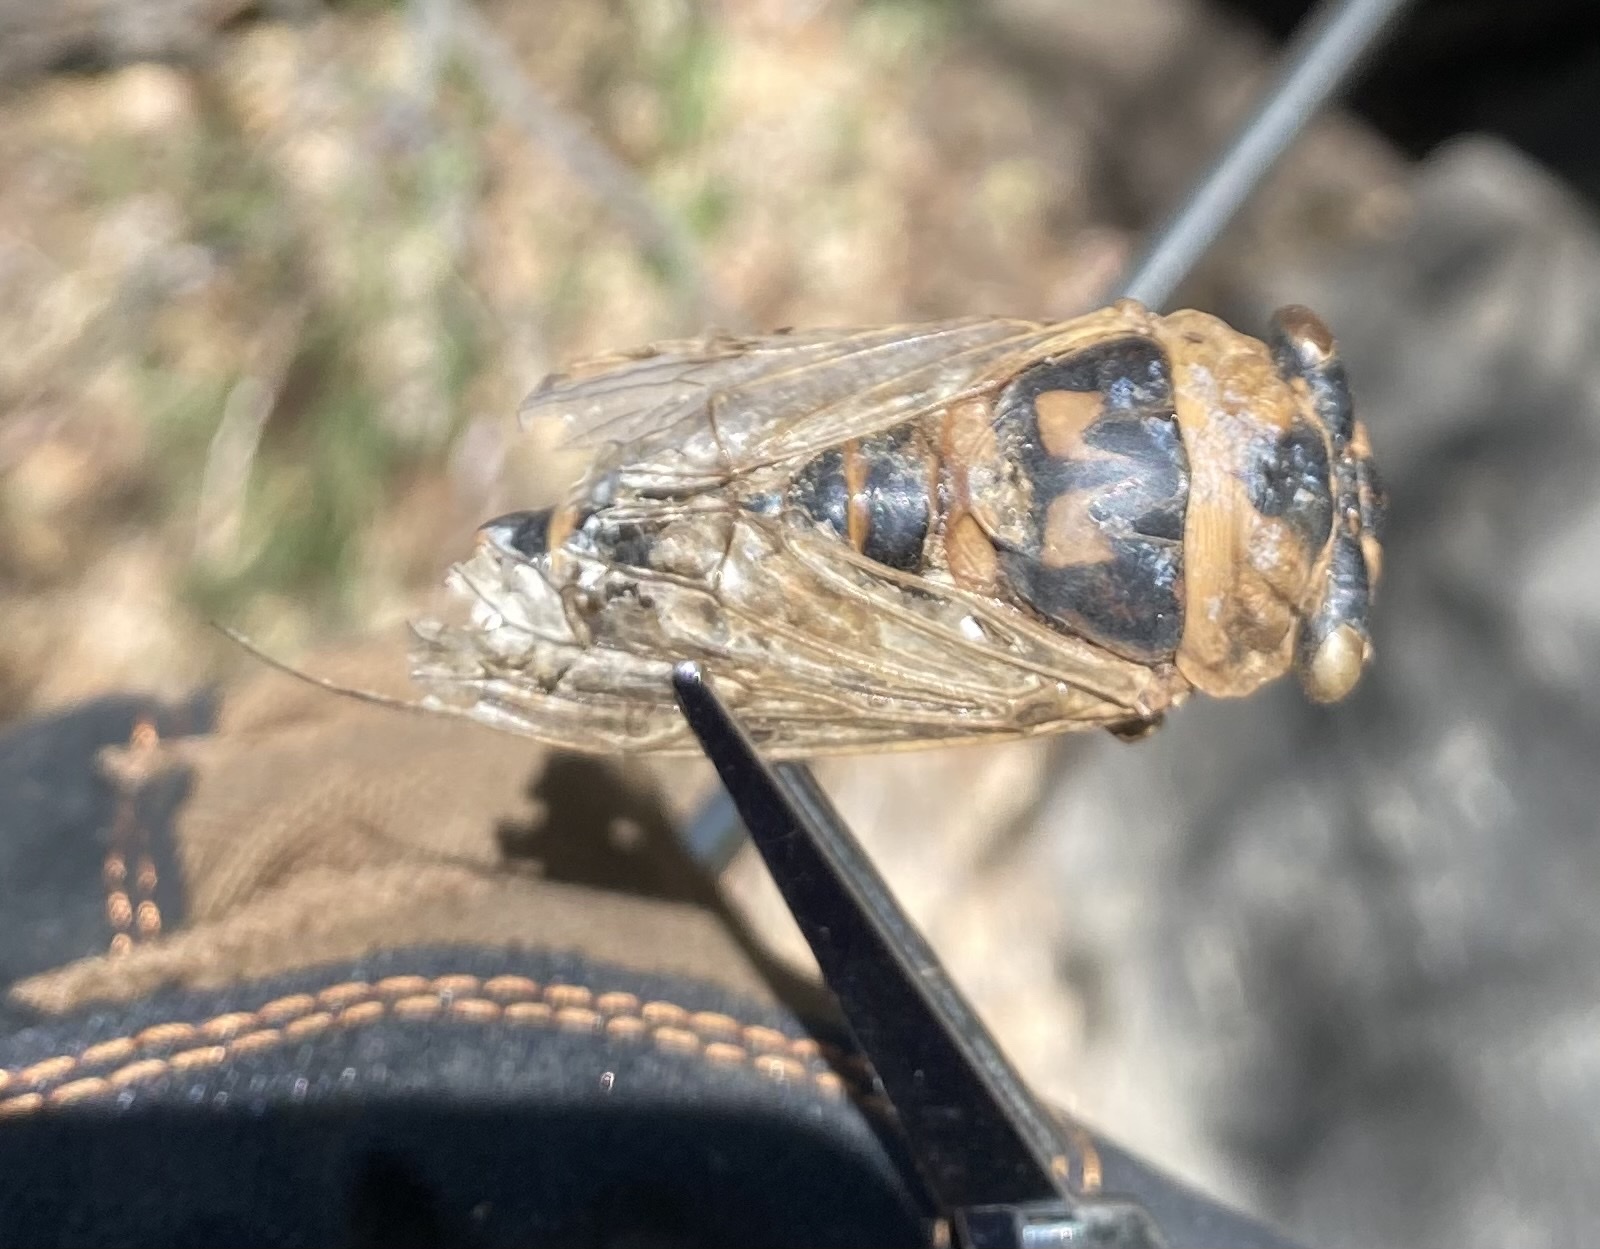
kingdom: Animalia
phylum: Arthropoda
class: Insecta
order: Hemiptera
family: Cicadidae
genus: Megatibicen
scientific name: Megatibicen cultriformis
